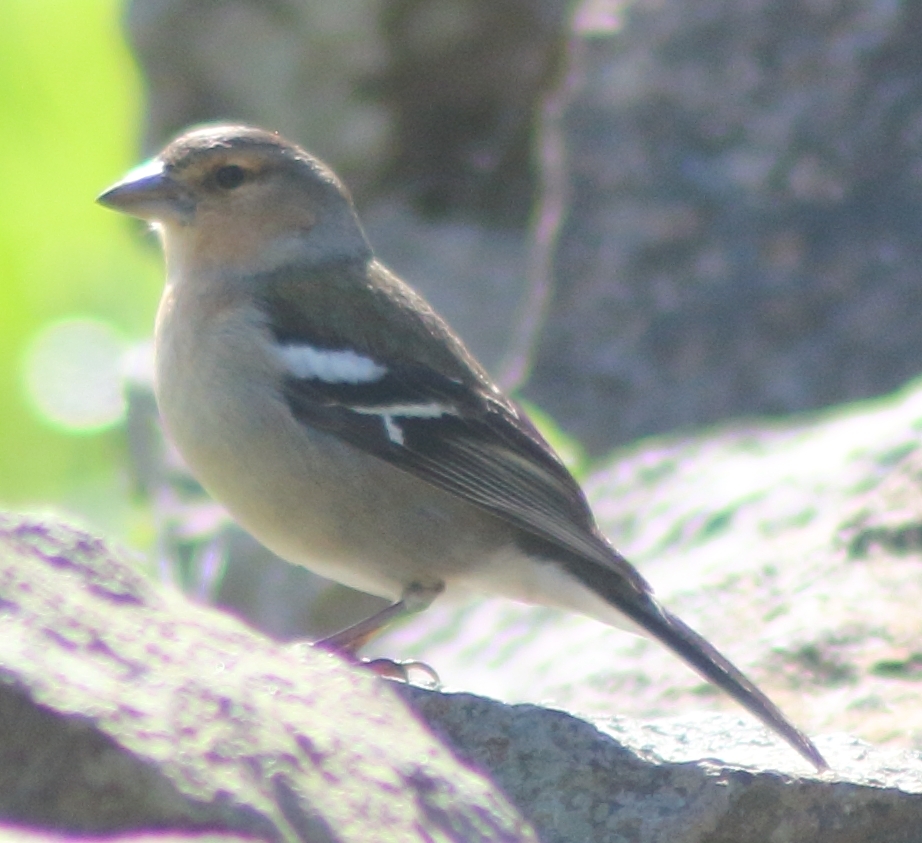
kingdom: Animalia
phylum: Chordata
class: Aves
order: Passeriformes
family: Fringillidae
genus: Fringilla
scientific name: Fringilla moreletti
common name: Azores chaffinch
